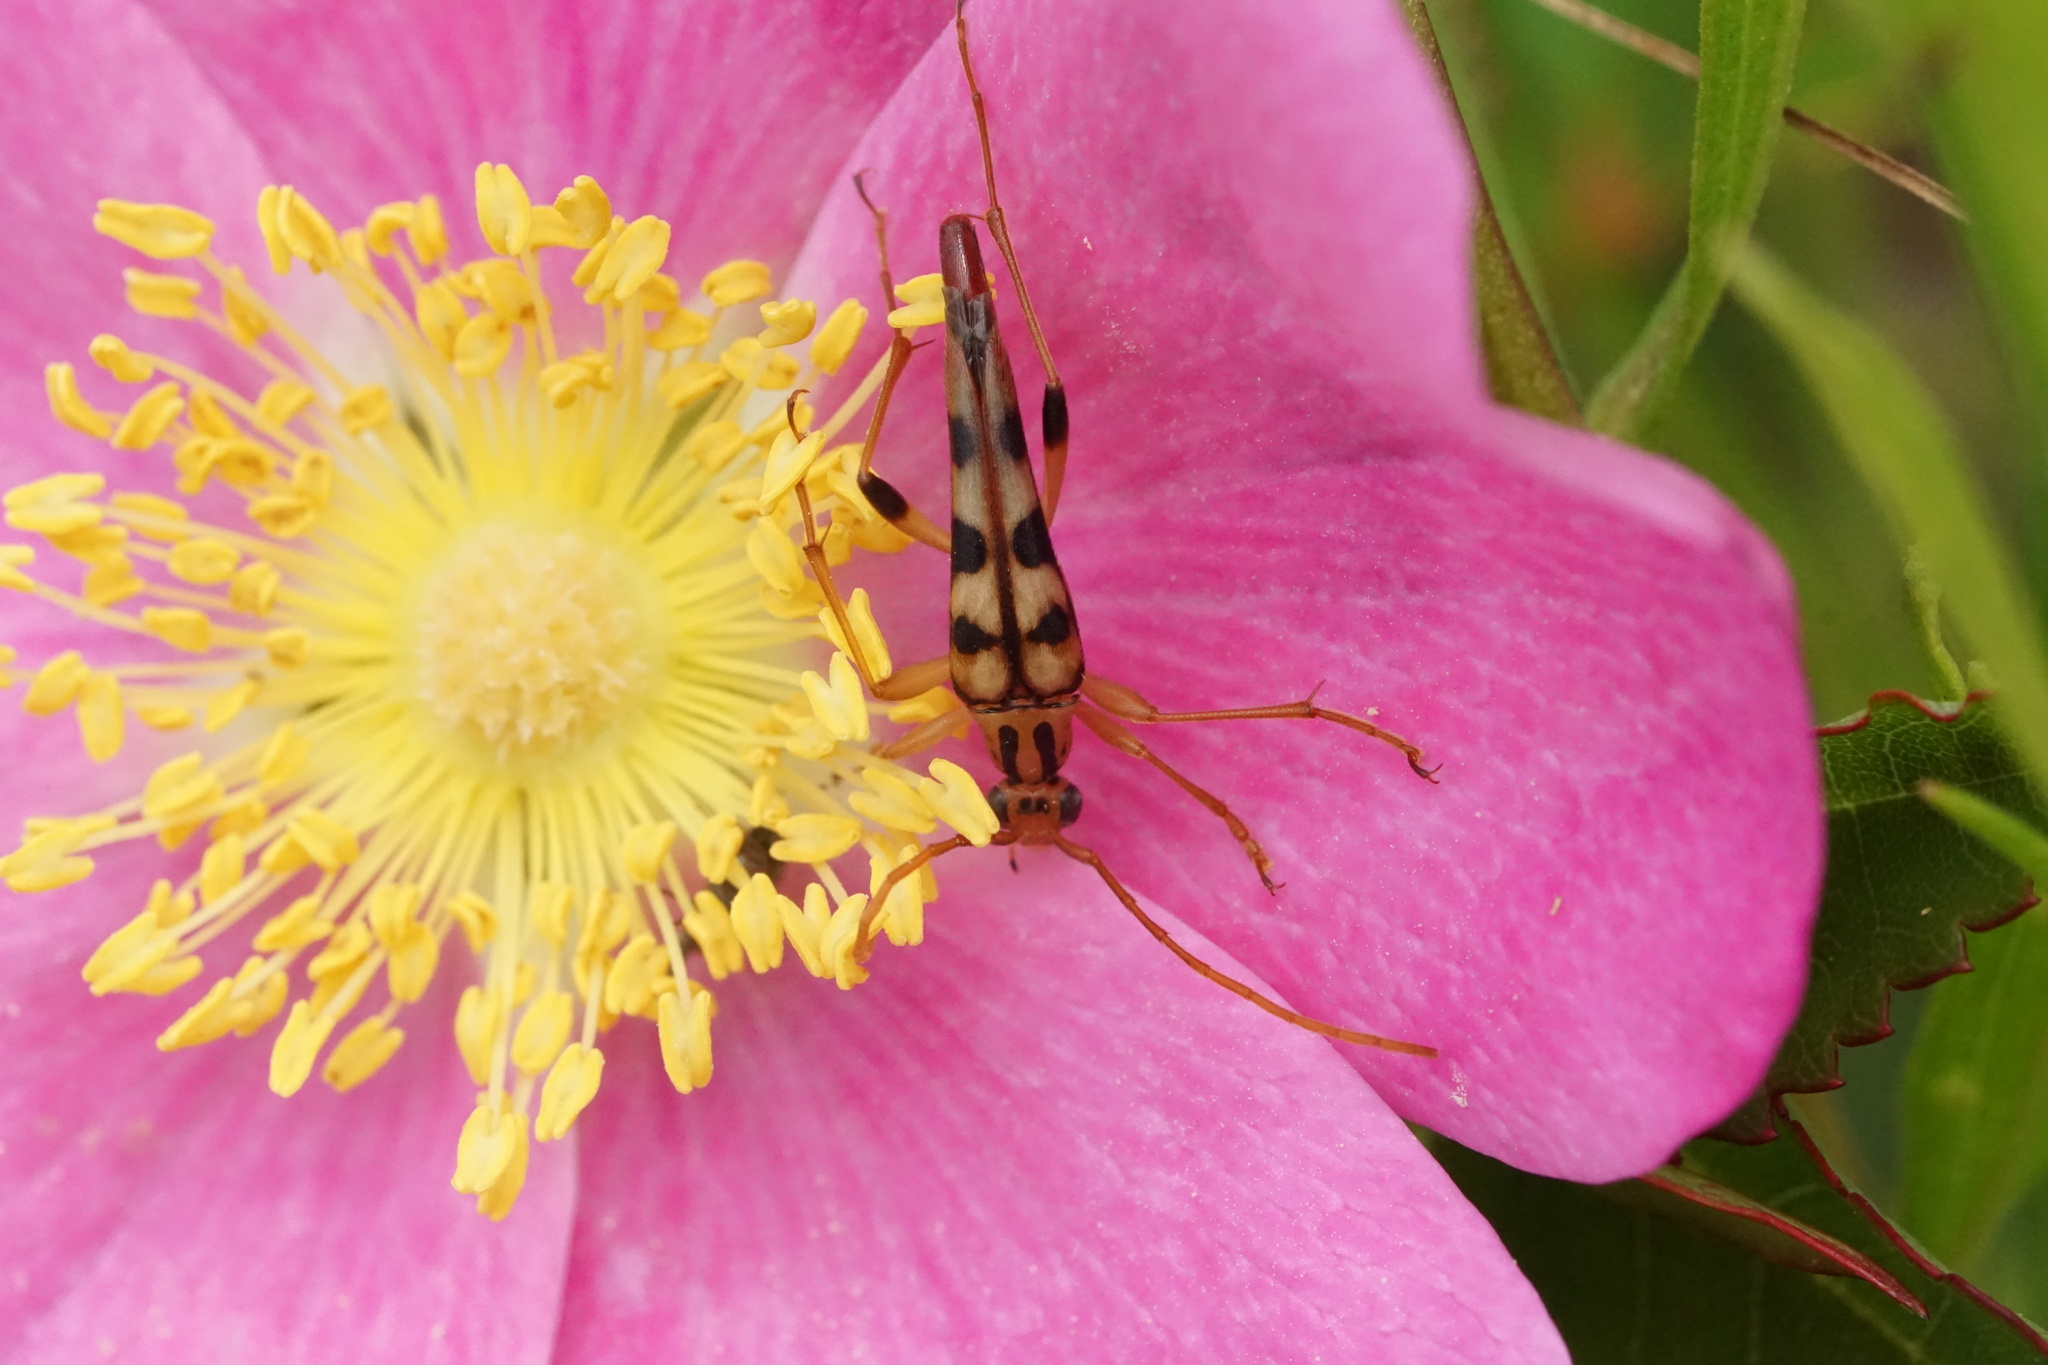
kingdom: Animalia
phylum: Arthropoda
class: Insecta
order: Coleoptera
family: Cerambycidae
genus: Strangalia
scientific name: Strangalia luteicornis
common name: Yellow-horned flower longhorn beetle
